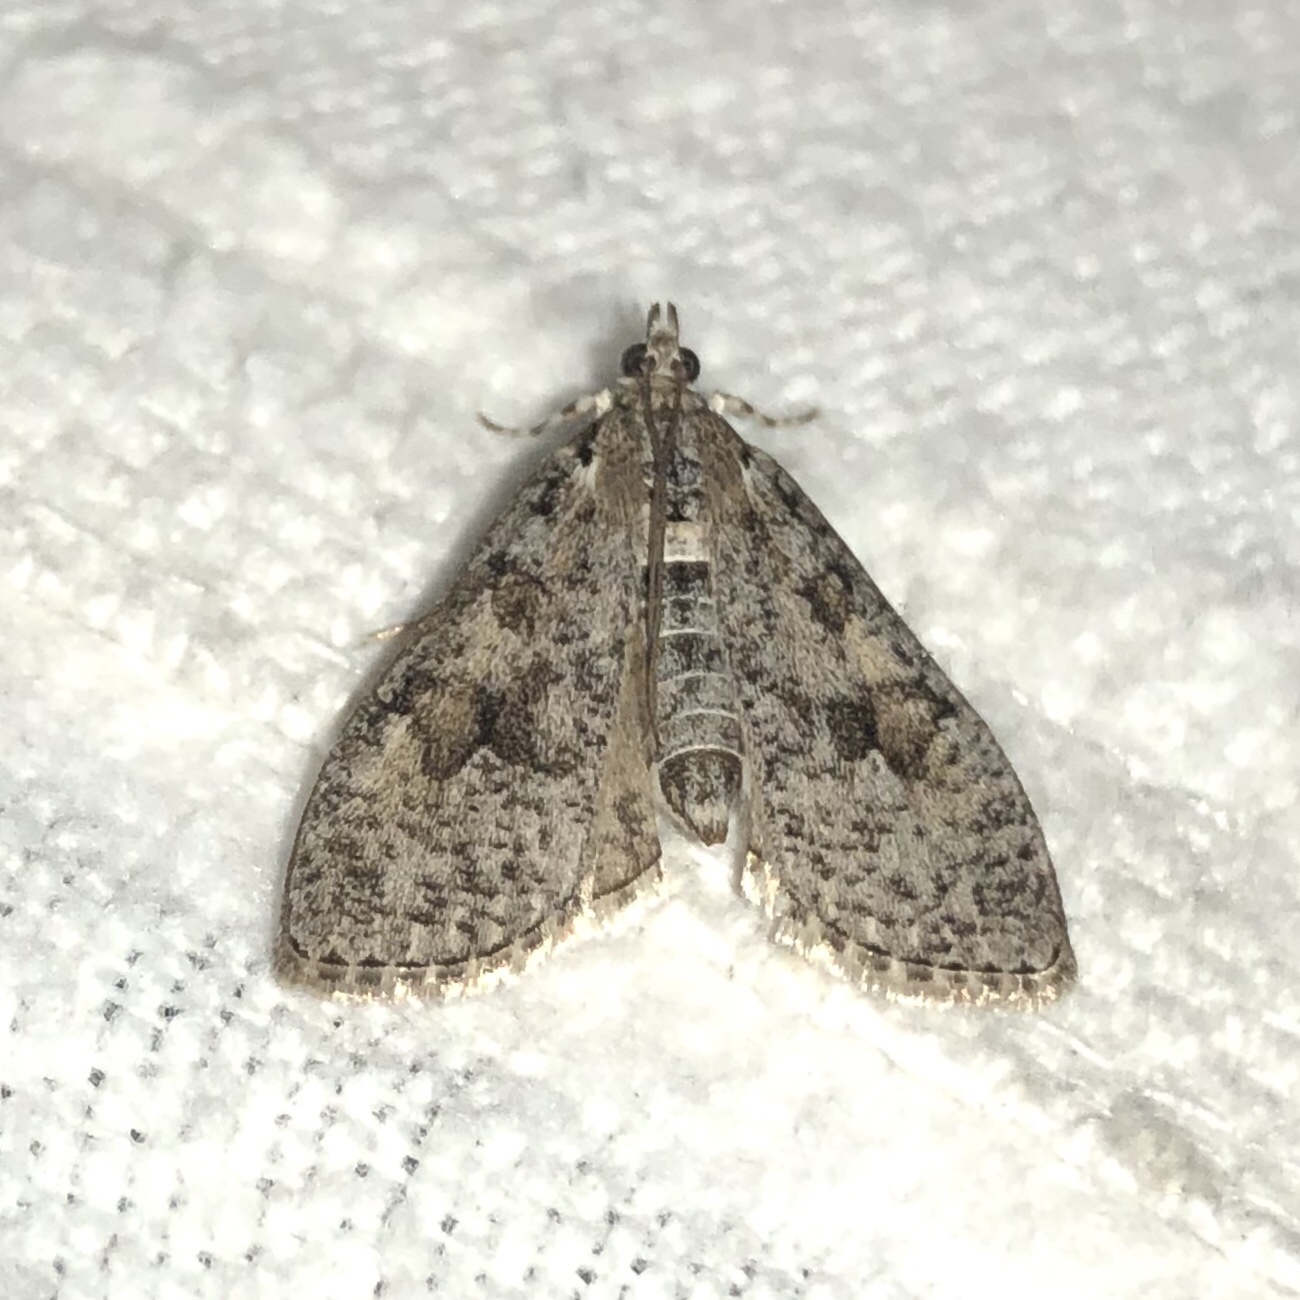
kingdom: Animalia
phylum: Arthropoda
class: Insecta
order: Lepidoptera
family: Crambidae
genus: Palpita
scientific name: Palpita magniferalis
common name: Splendid palpita moth
